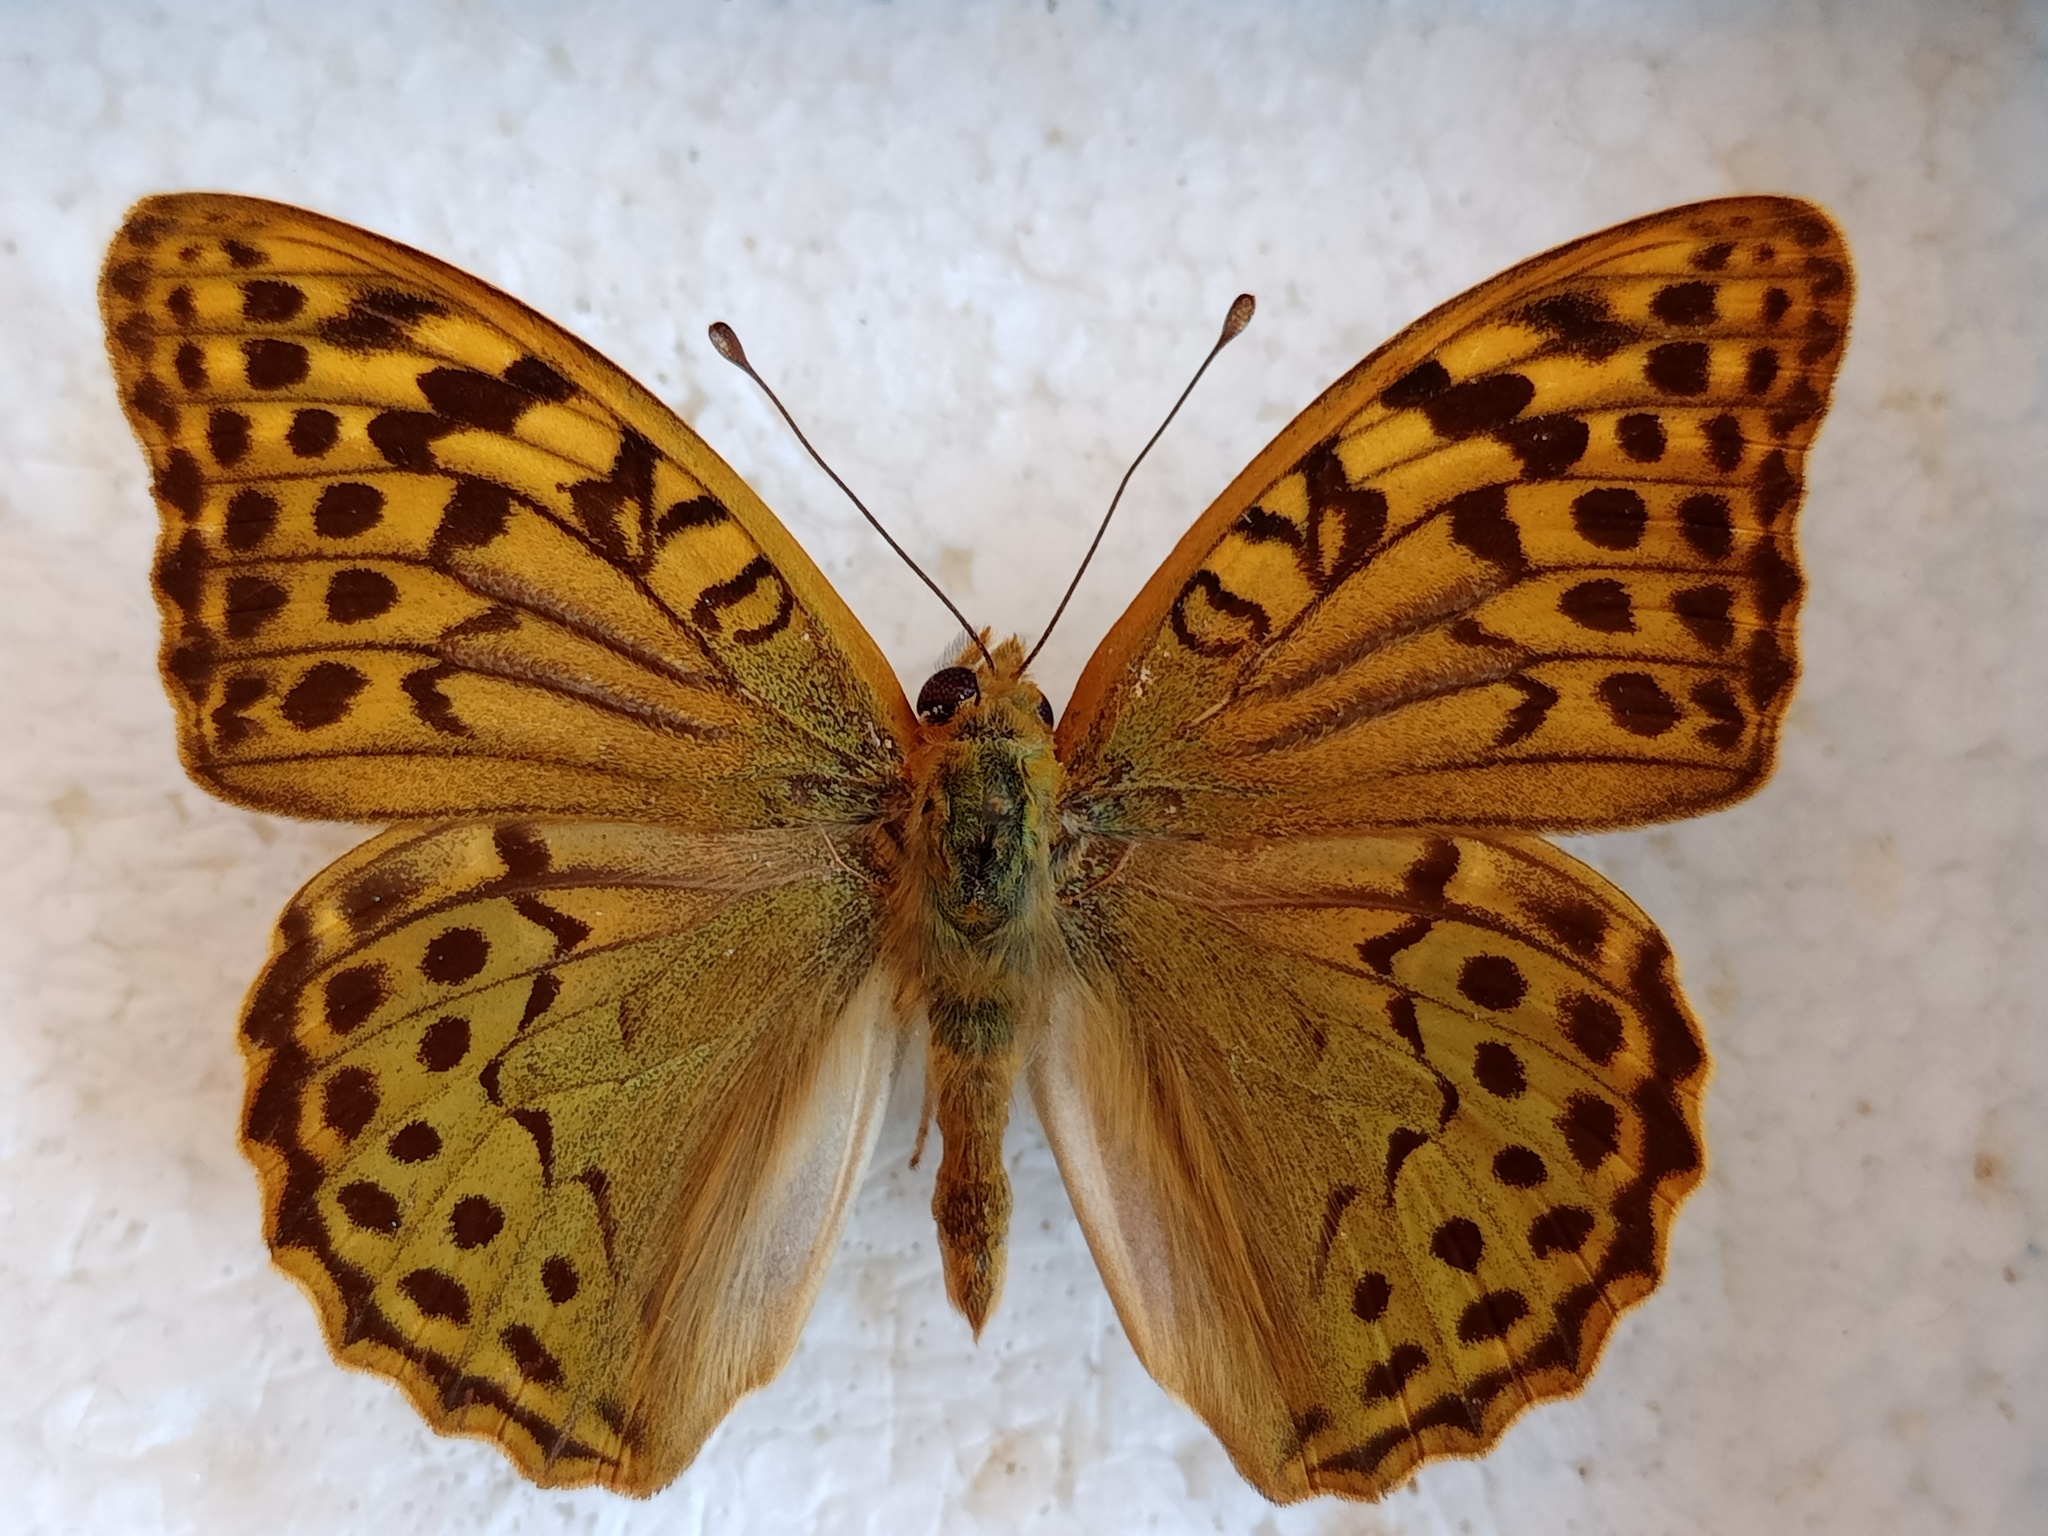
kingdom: Animalia
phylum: Arthropoda
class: Insecta
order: Lepidoptera
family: Nymphalidae
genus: Damora
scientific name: Damora pandora
